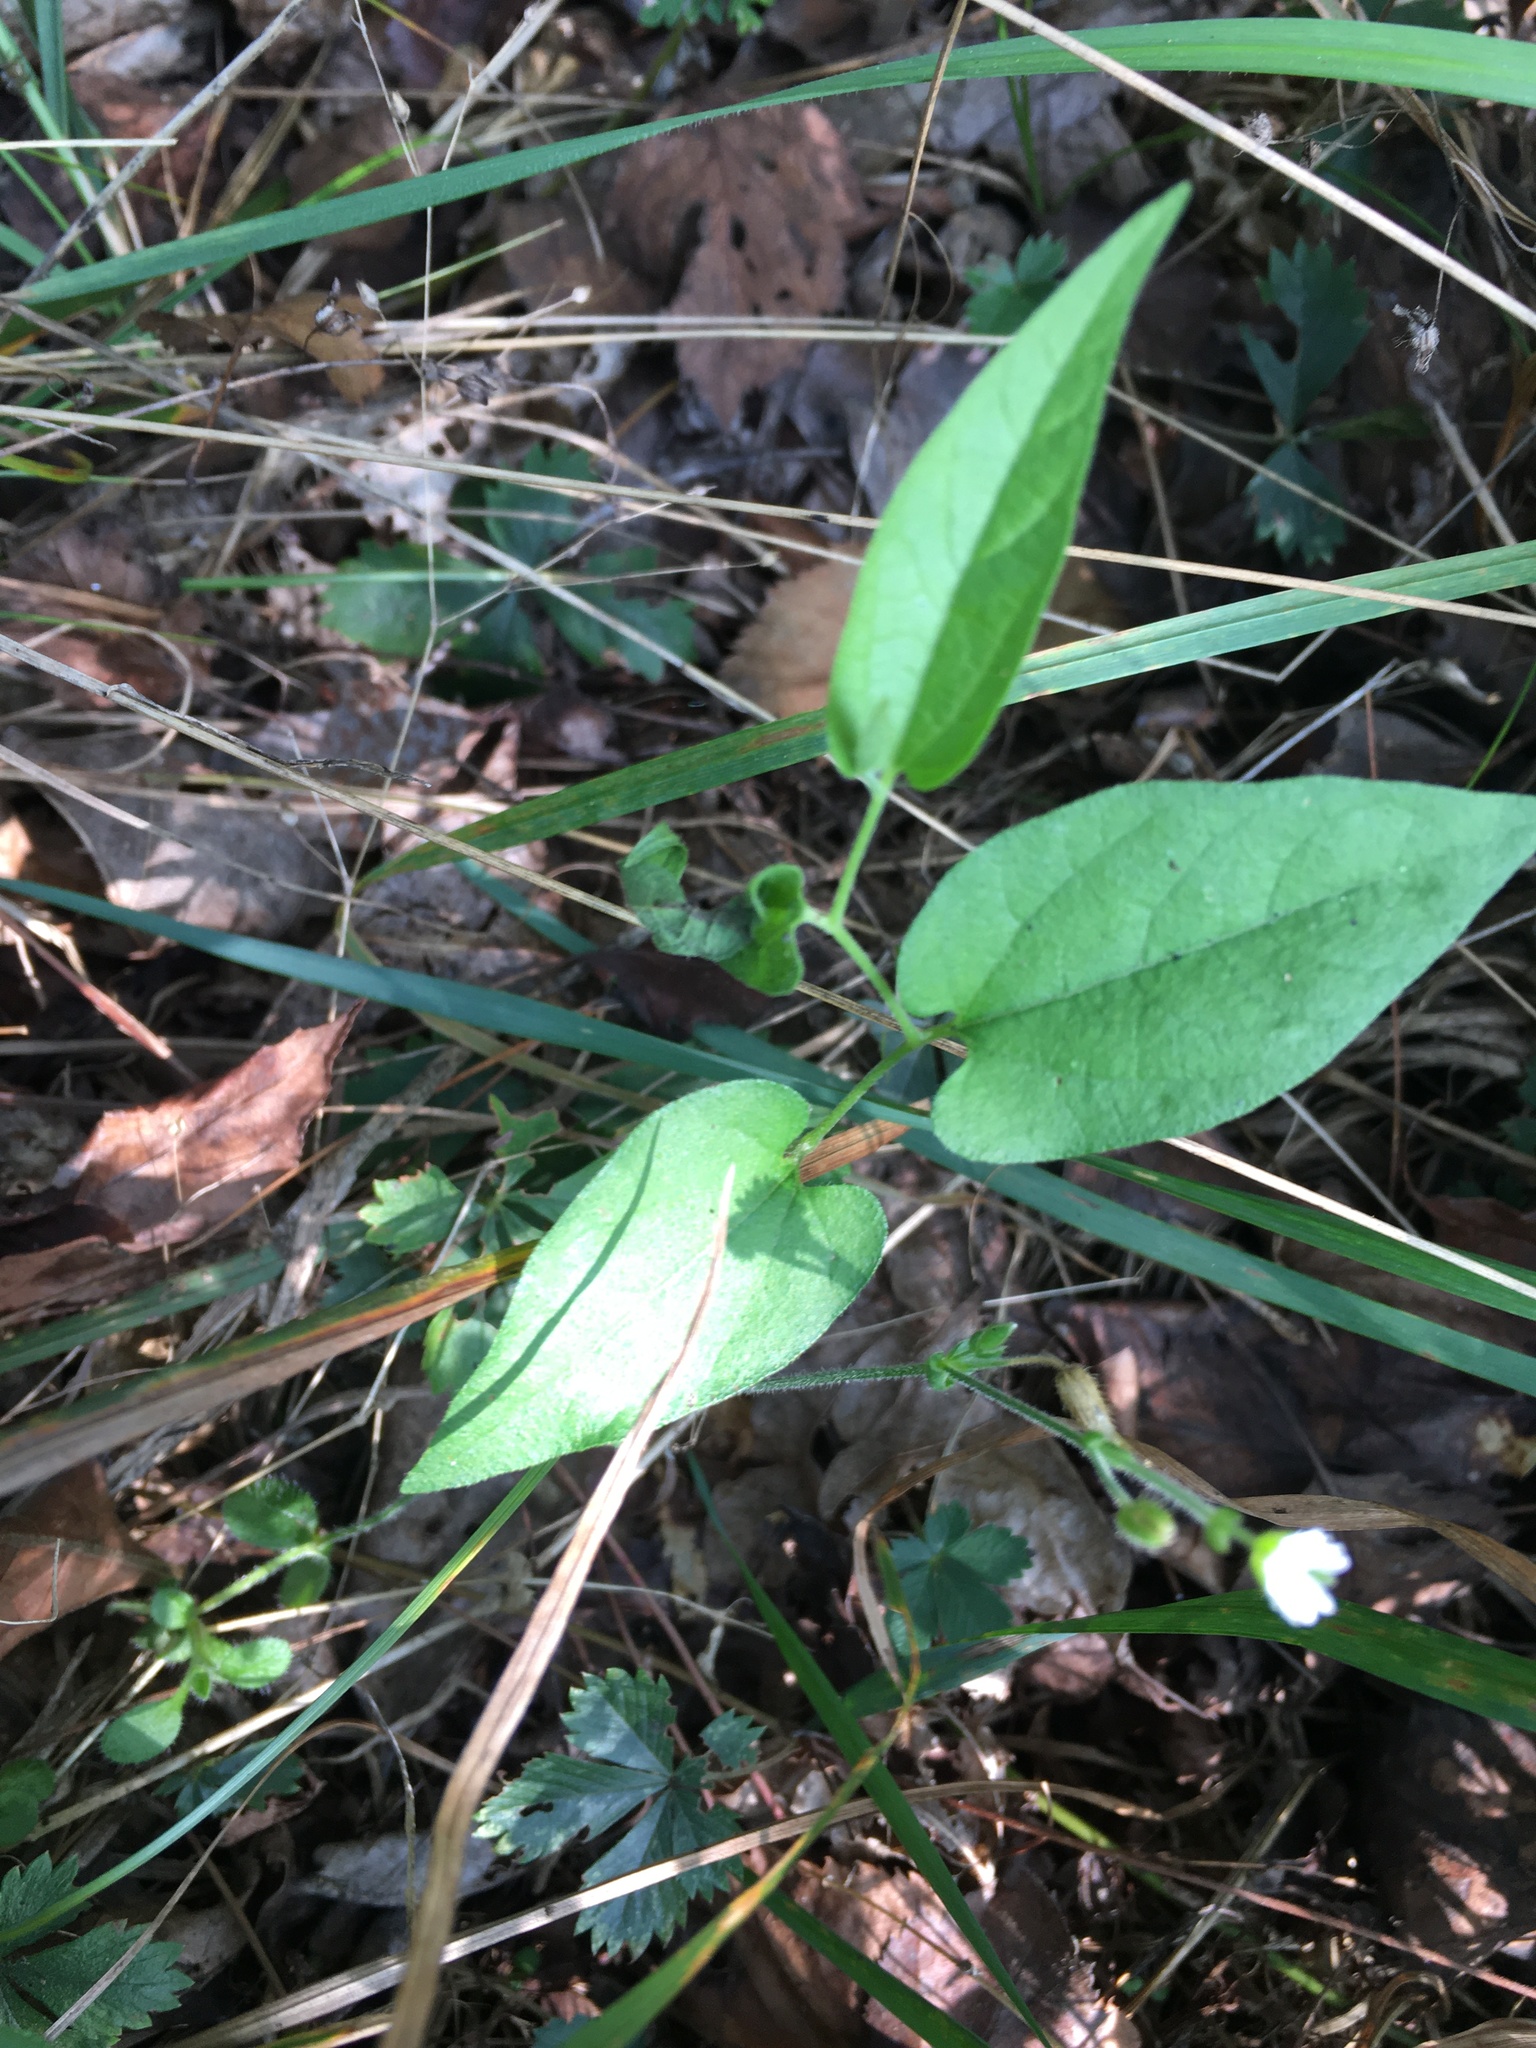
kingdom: Plantae
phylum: Tracheophyta
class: Magnoliopsida
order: Piperales
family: Aristolochiaceae
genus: Endodeca
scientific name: Endodeca serpentaria
